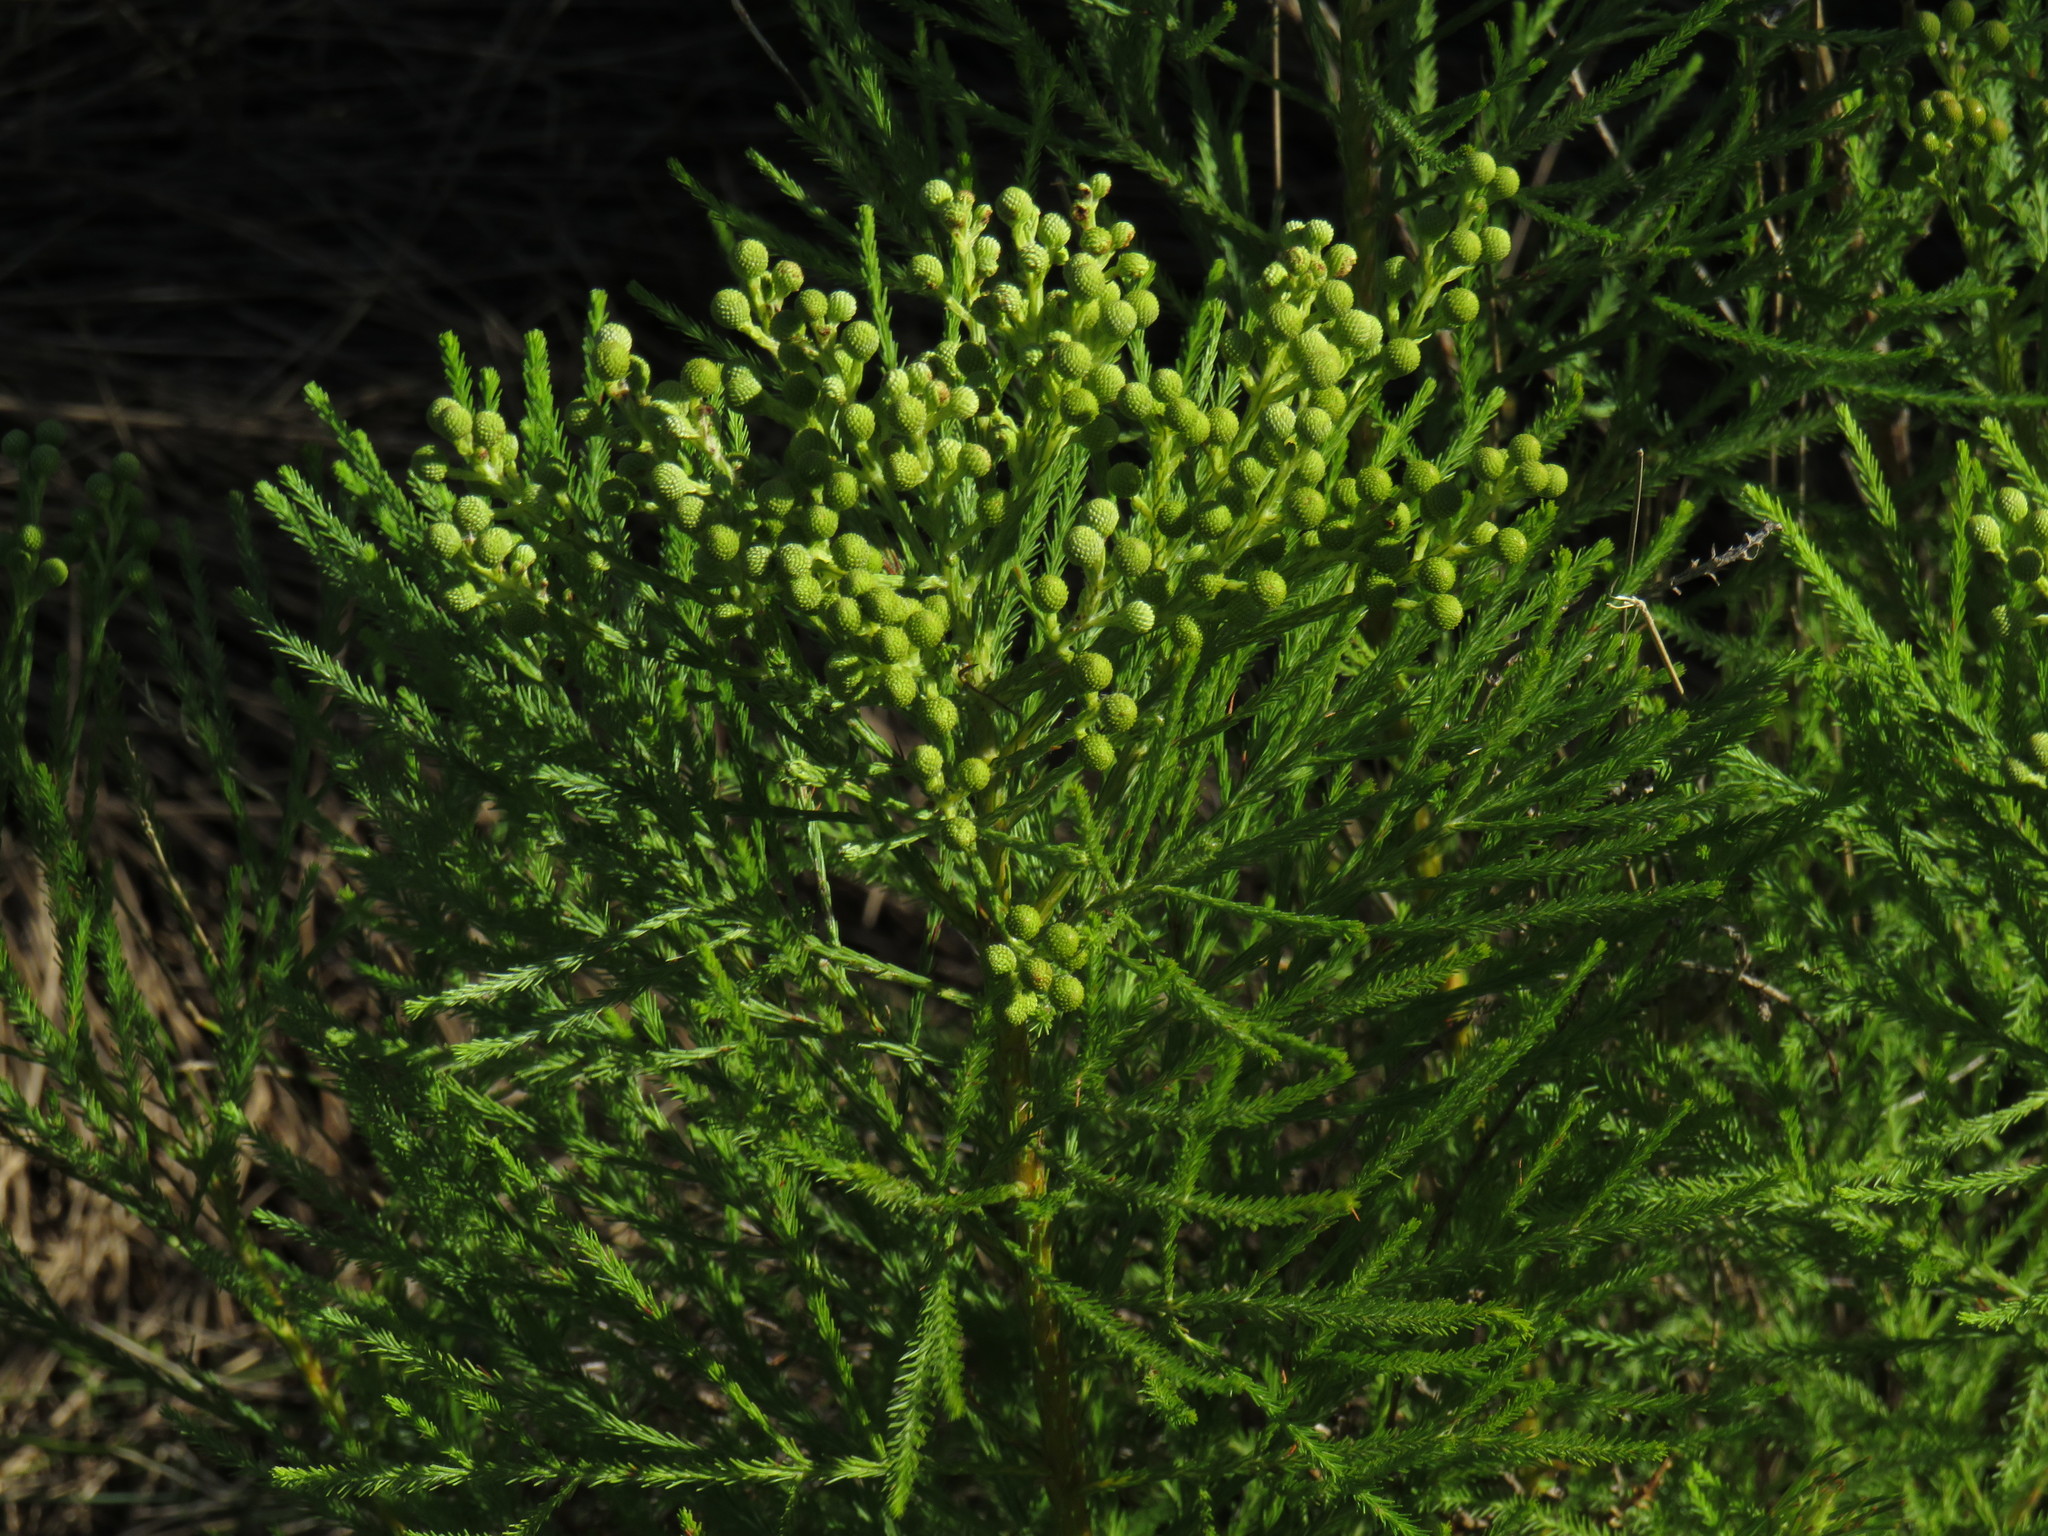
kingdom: Plantae
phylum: Tracheophyta
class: Magnoliopsida
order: Bruniales
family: Bruniaceae
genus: Berzelia
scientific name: Berzelia lanuginosa
